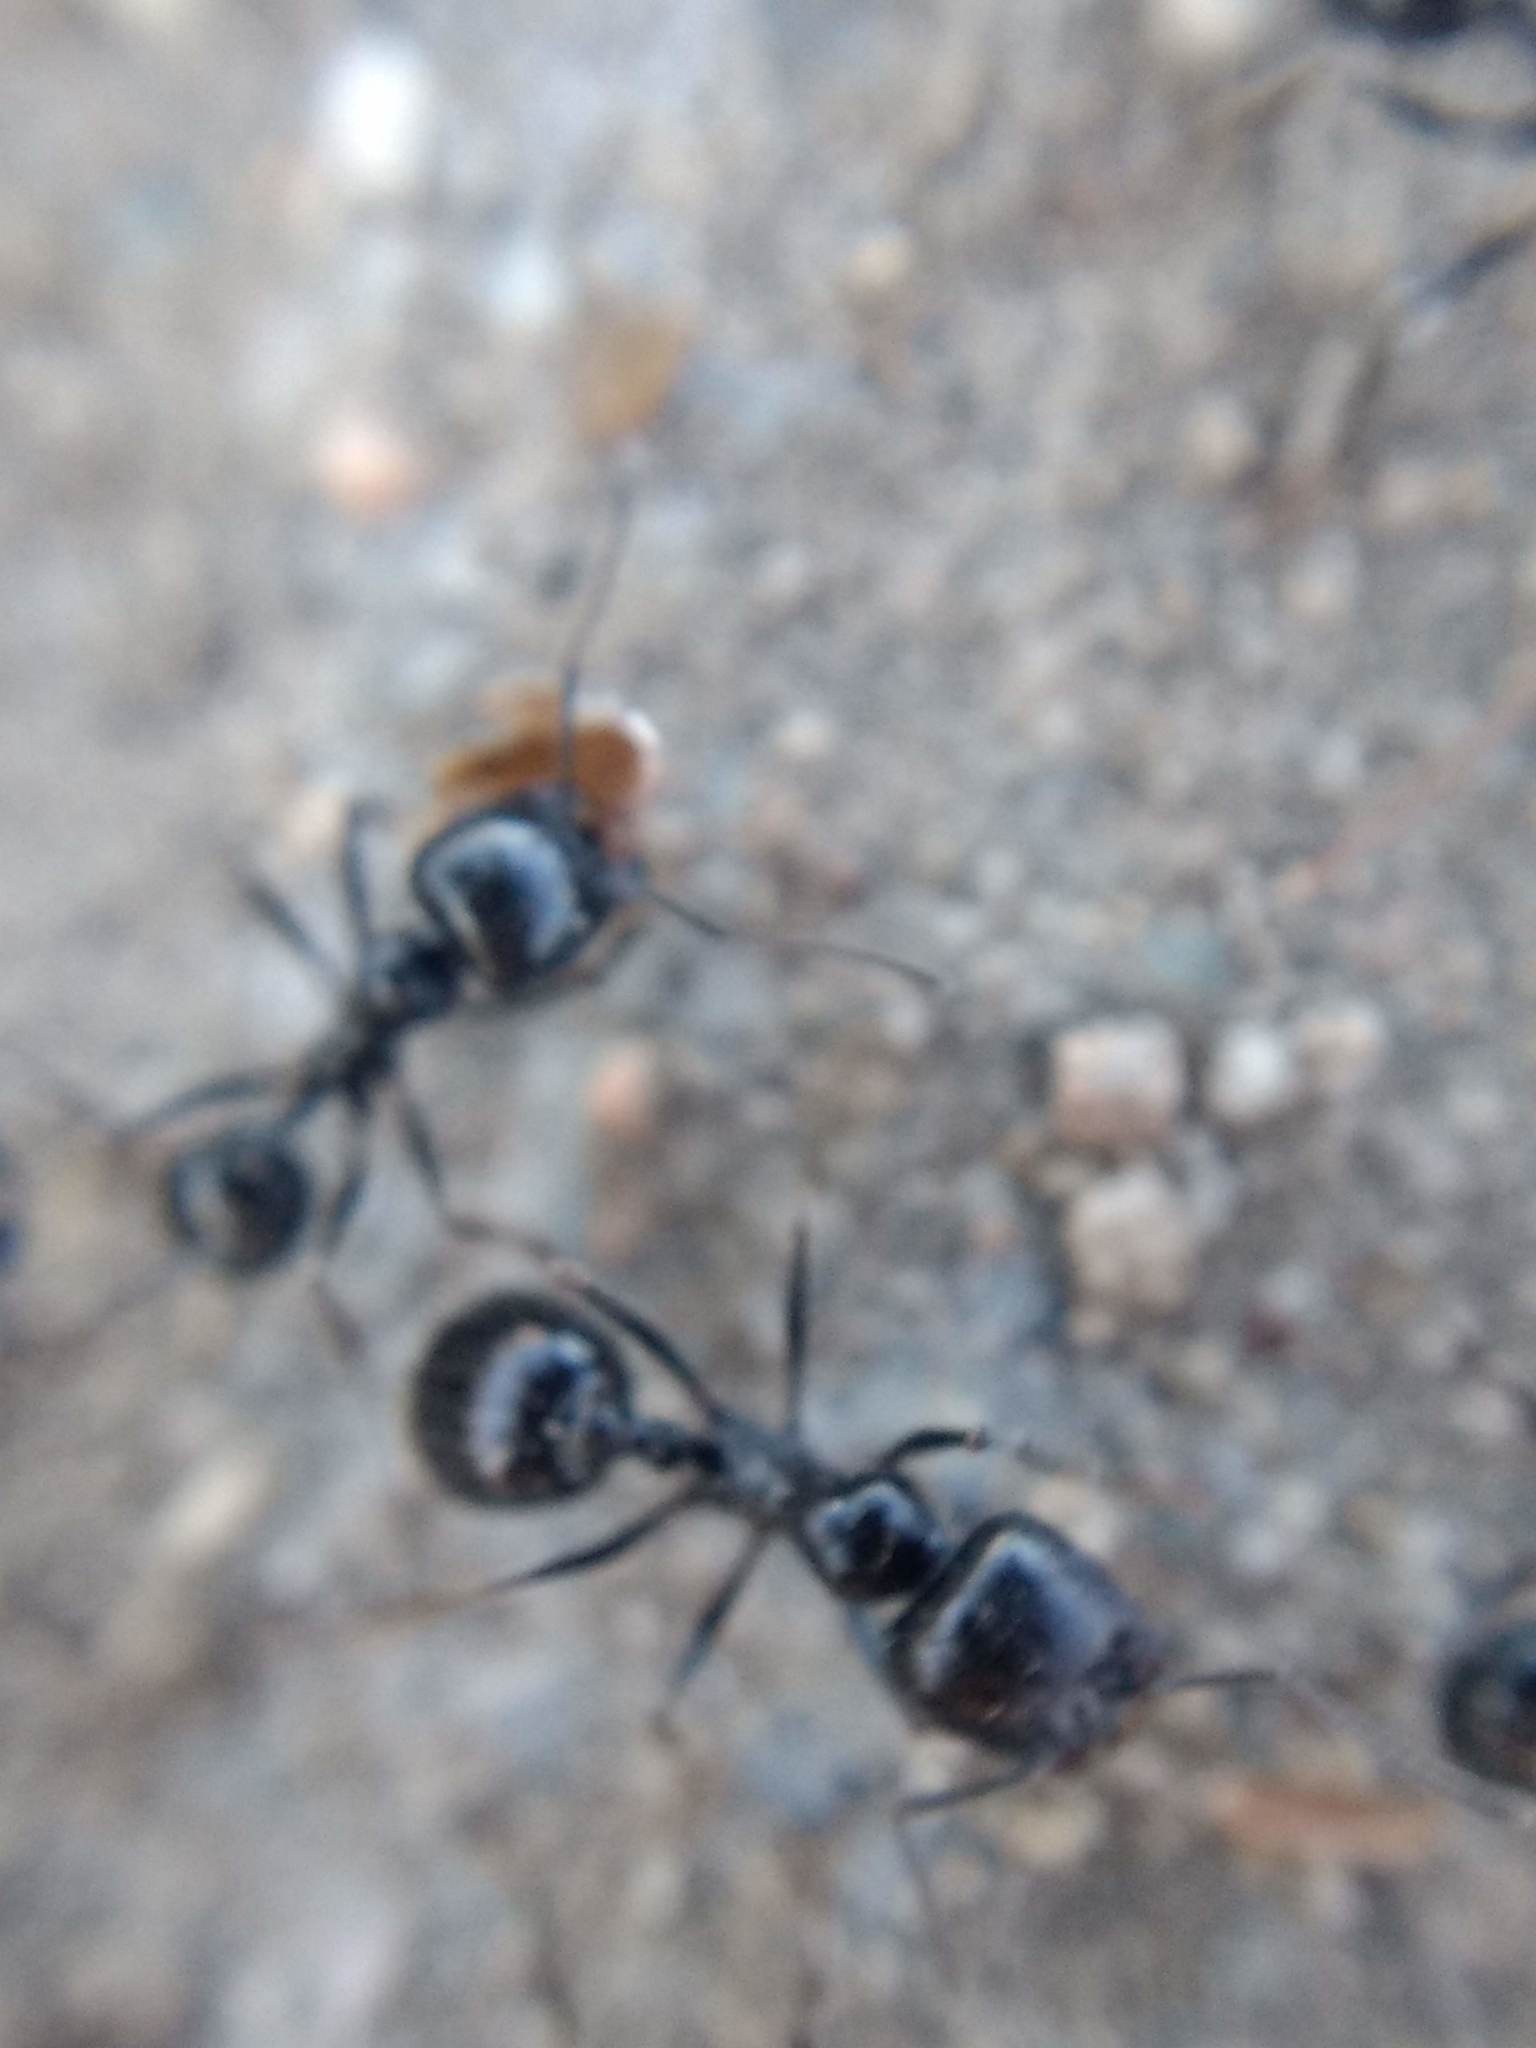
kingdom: Animalia
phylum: Arthropoda
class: Insecta
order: Hymenoptera
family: Formicidae
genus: Messor
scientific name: Messor pergandei
